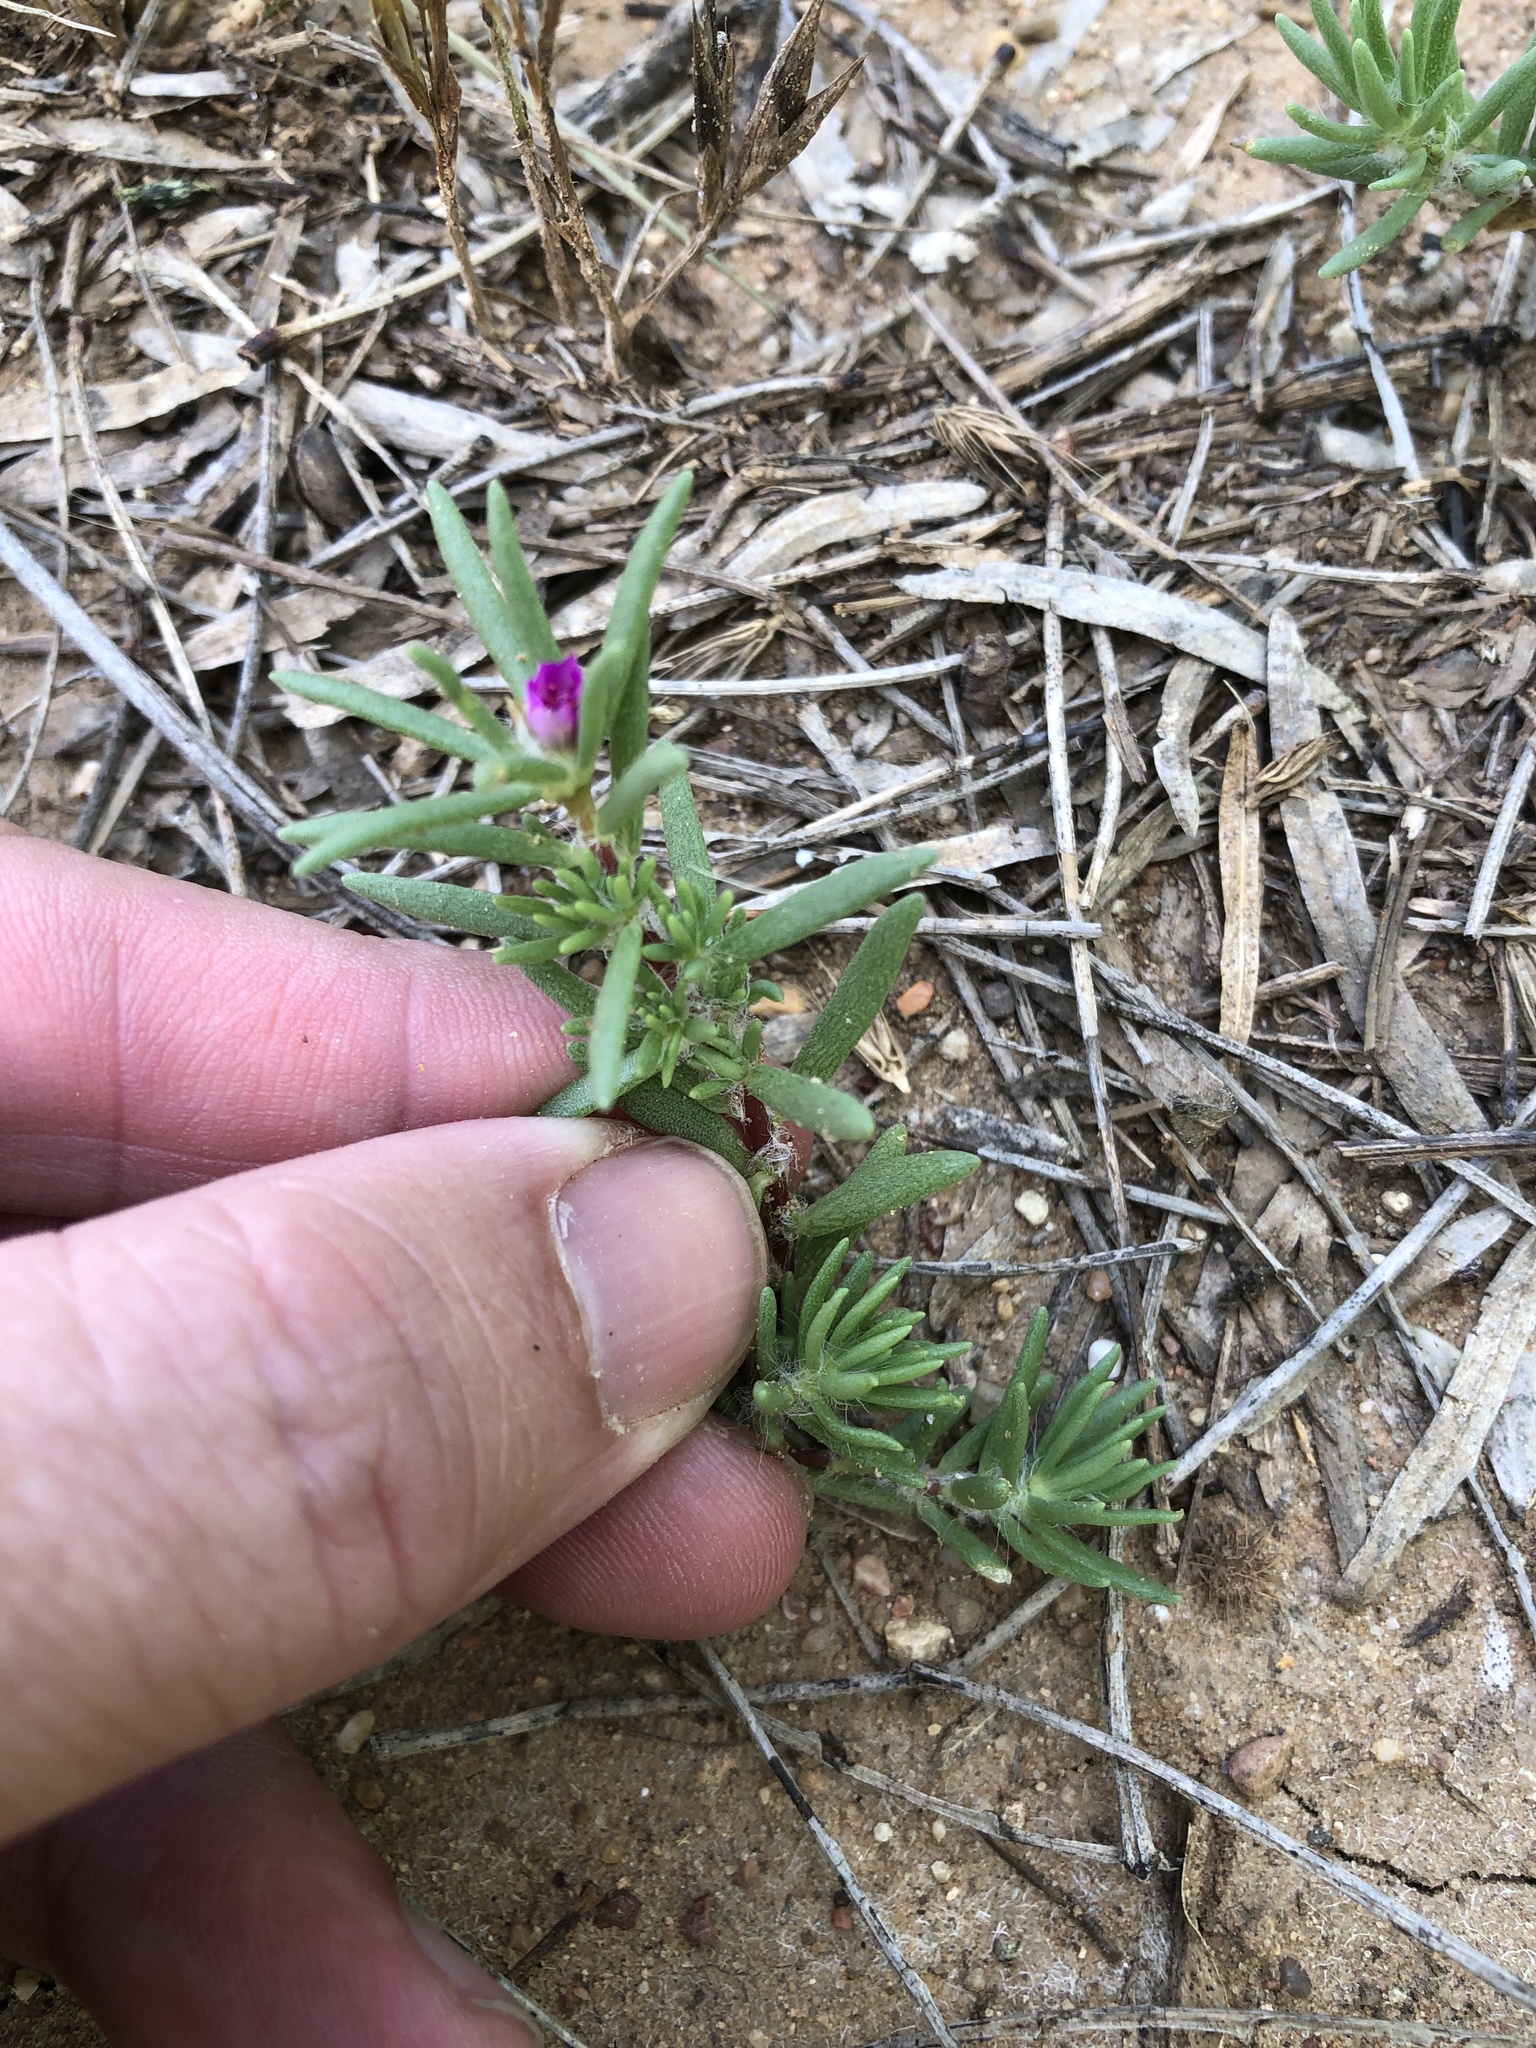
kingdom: Plantae
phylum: Tracheophyta
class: Magnoliopsida
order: Caryophyllales
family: Portulacaceae
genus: Portulaca
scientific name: Portulaca pilosa
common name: Kiss me quick
